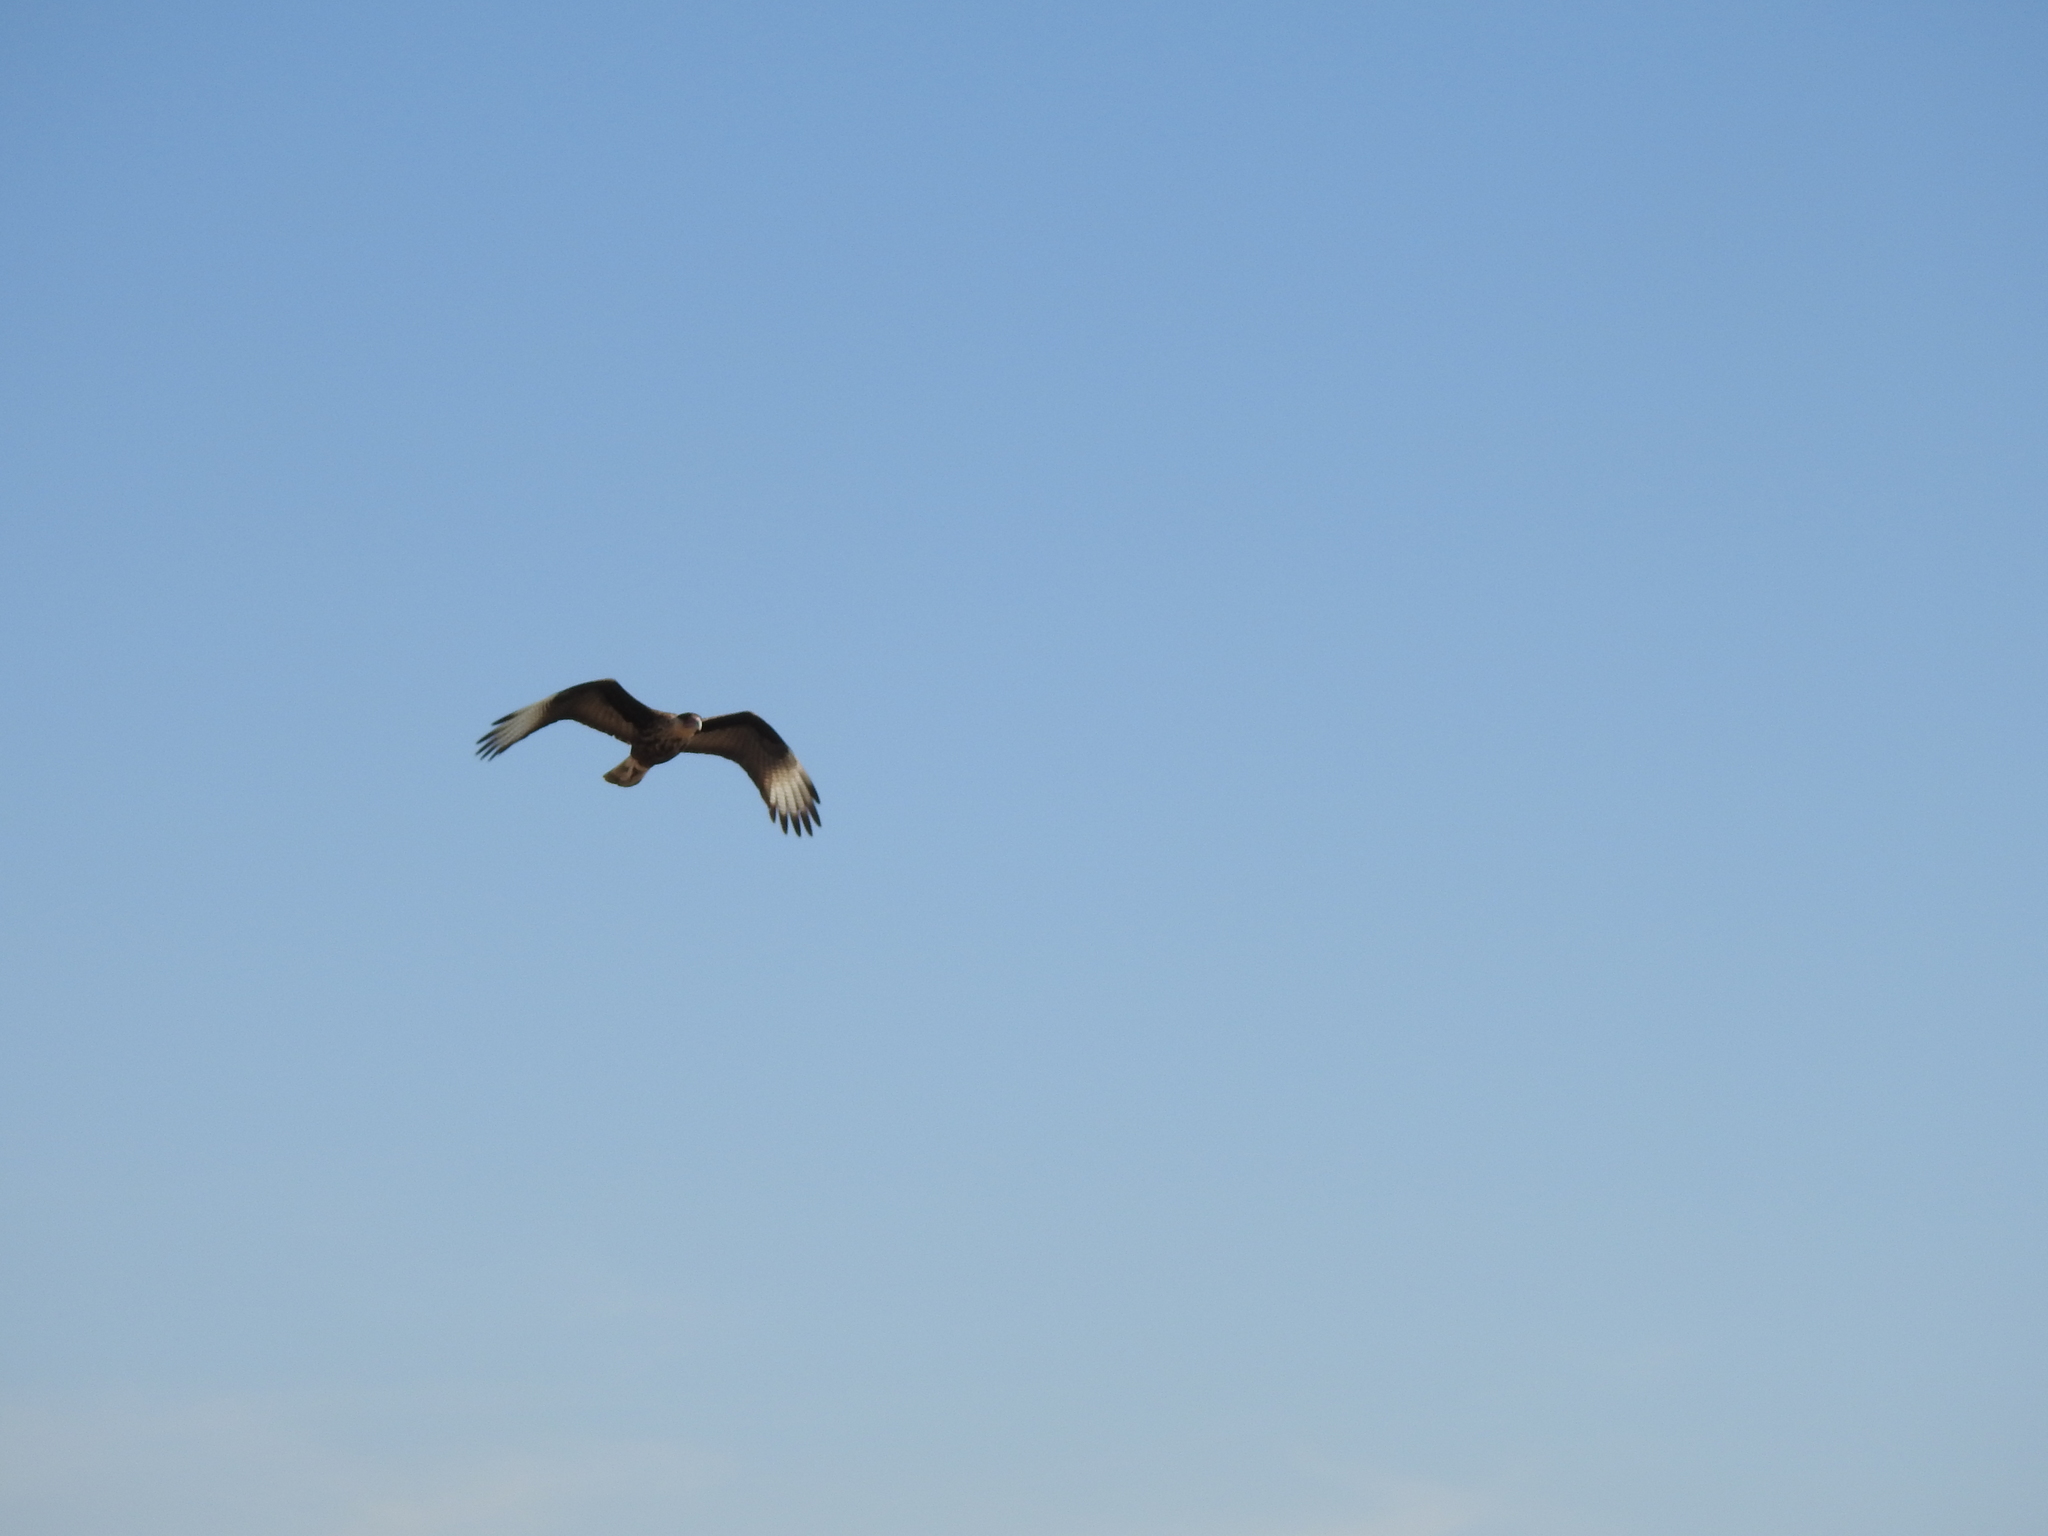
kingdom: Animalia
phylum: Chordata
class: Aves
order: Falconiformes
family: Falconidae
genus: Caracara
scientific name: Caracara plancus
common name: Southern caracara
